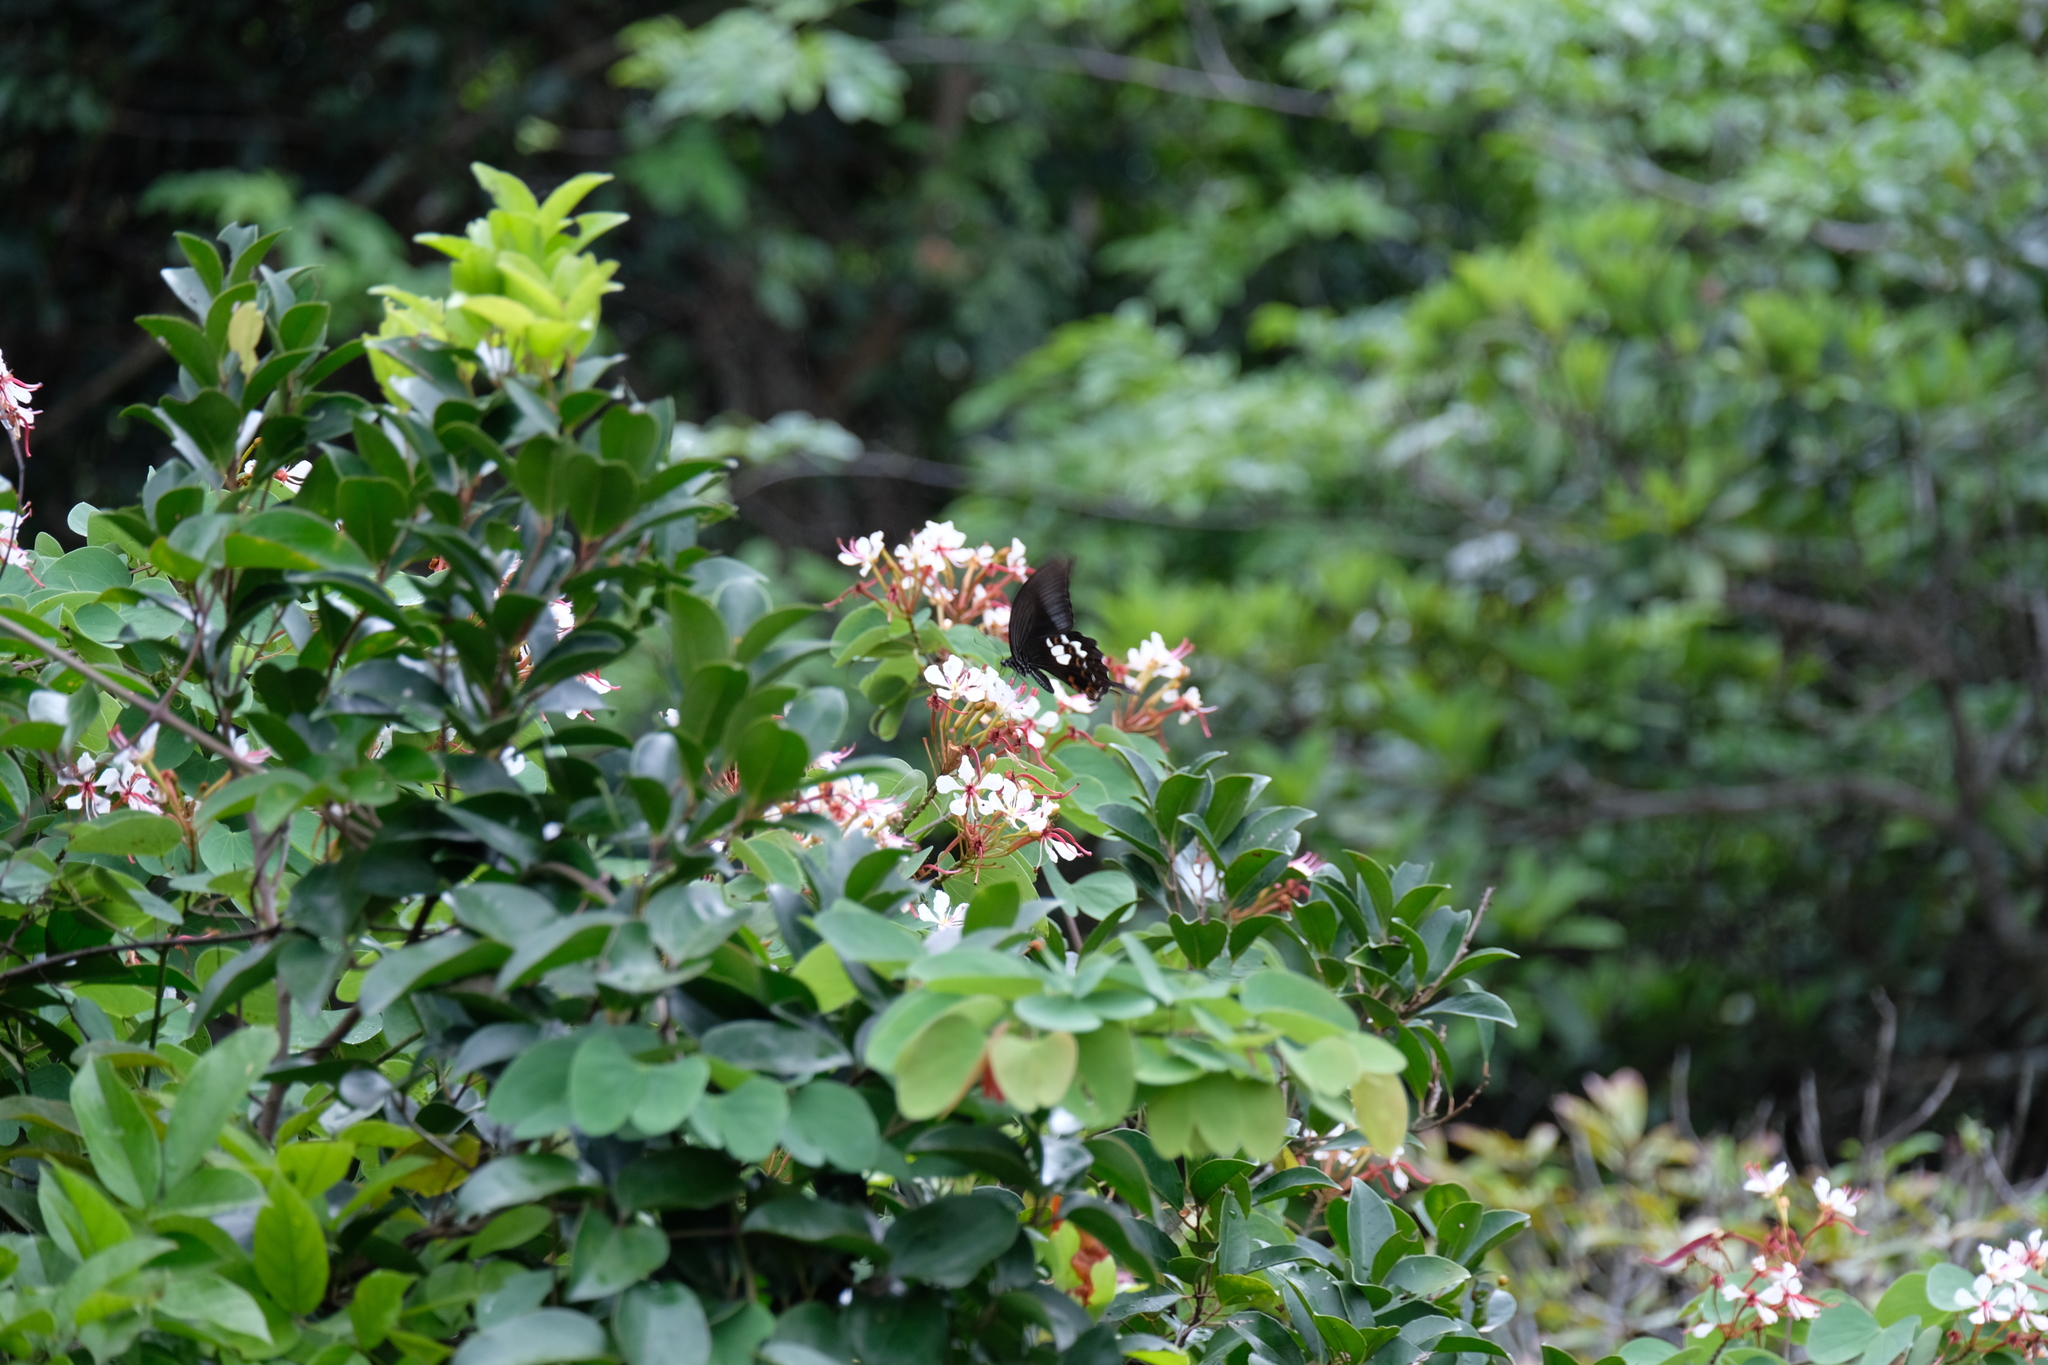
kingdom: Animalia
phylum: Arthropoda
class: Insecta
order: Lepidoptera
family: Papilionidae
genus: Papilio
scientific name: Papilio helenus
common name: Red helen
